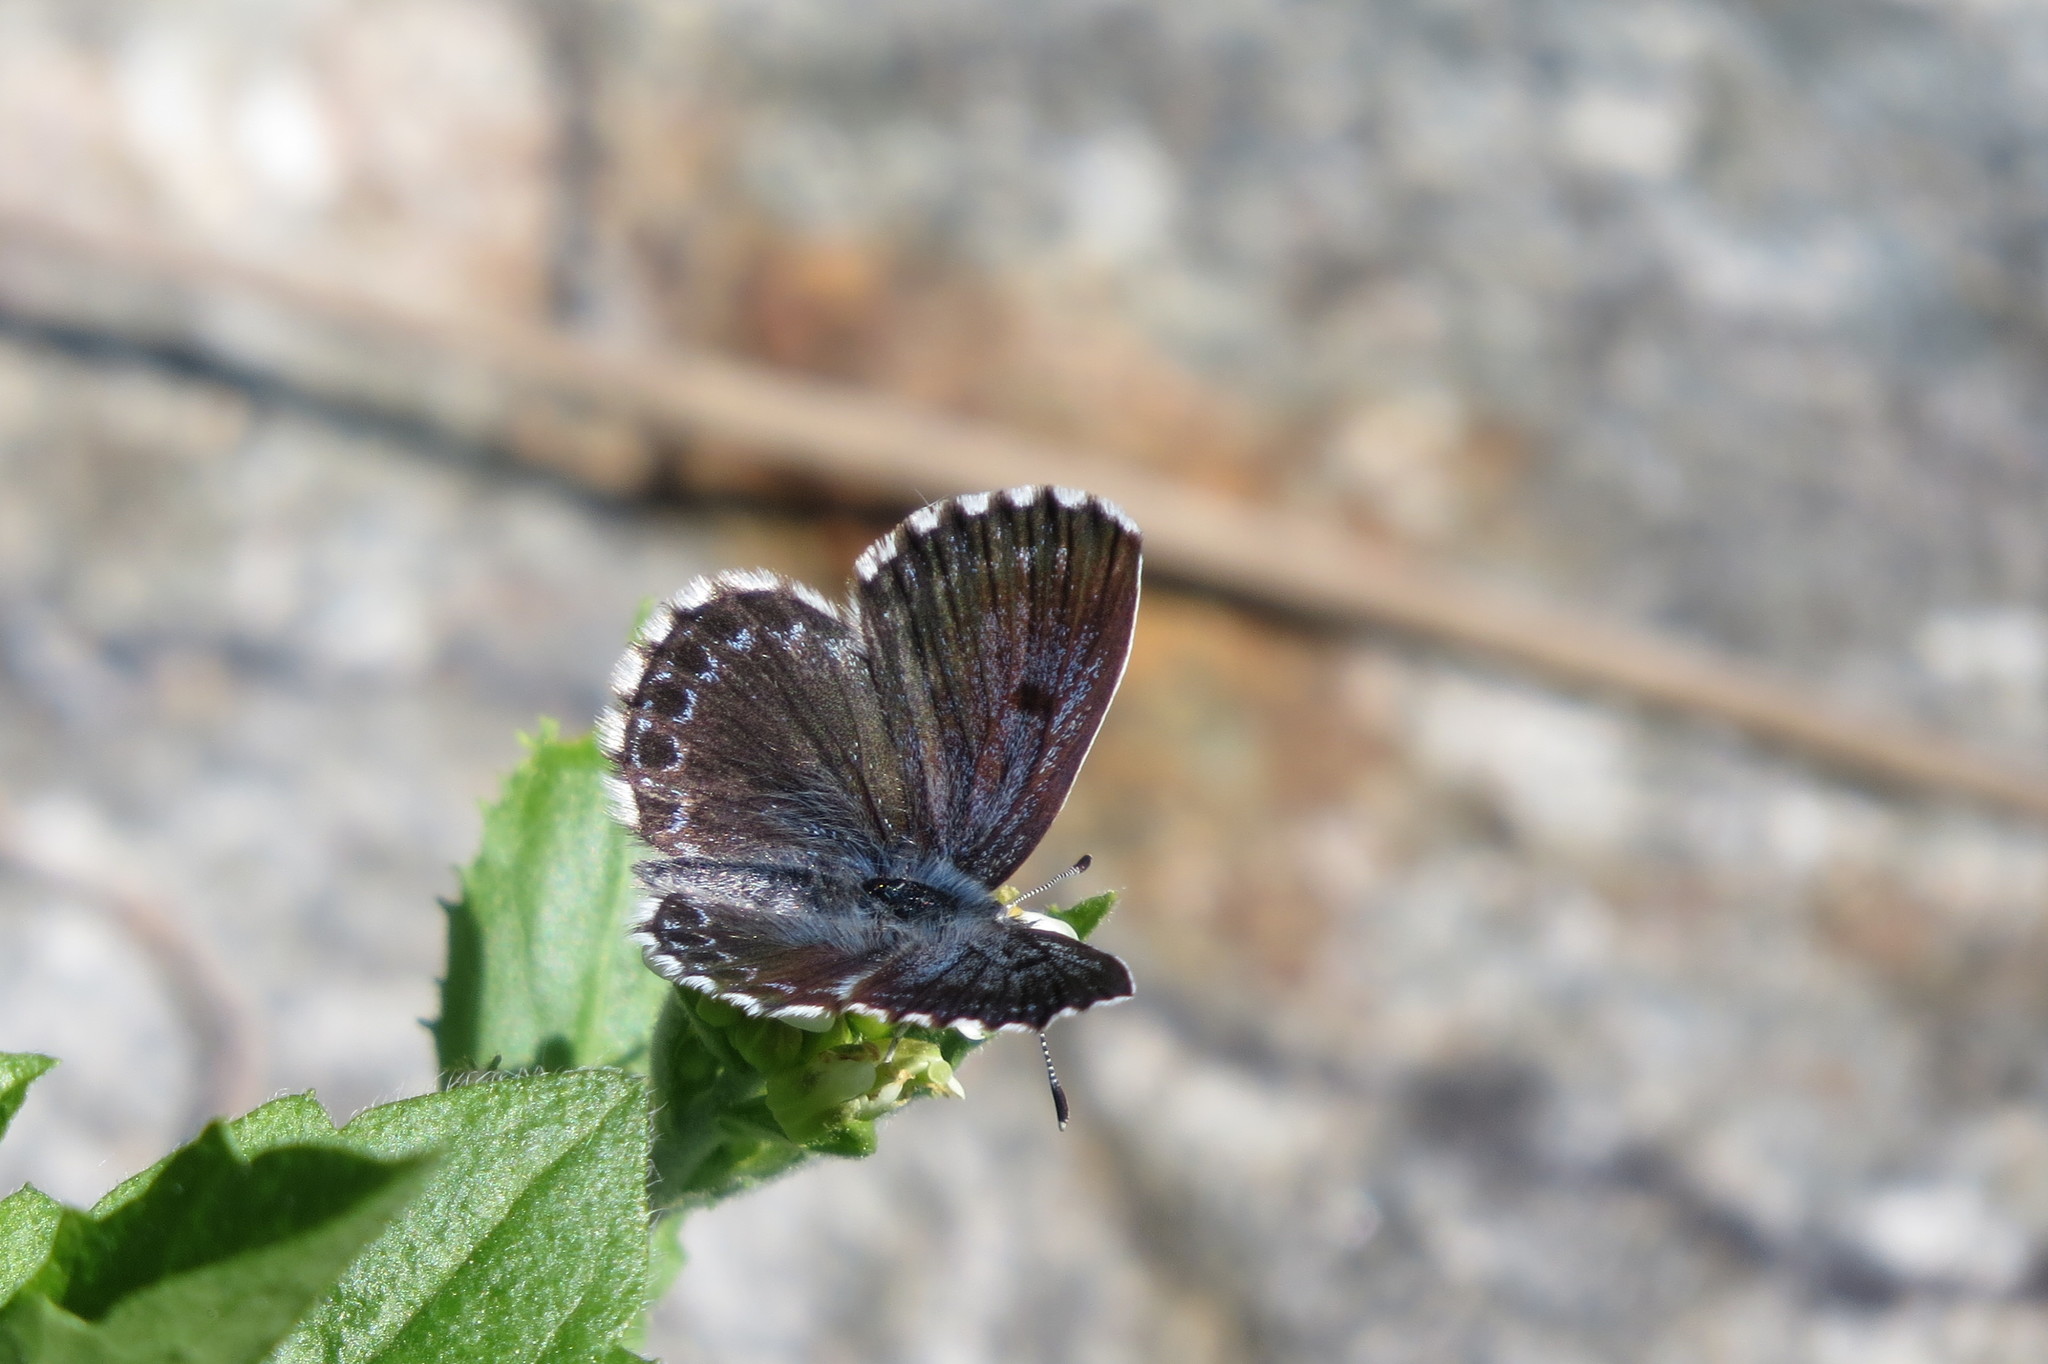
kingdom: Animalia
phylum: Arthropoda
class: Insecta
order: Lepidoptera
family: Lycaenidae
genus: Scolitantides
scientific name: Scolitantides orion
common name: Chequered blue
